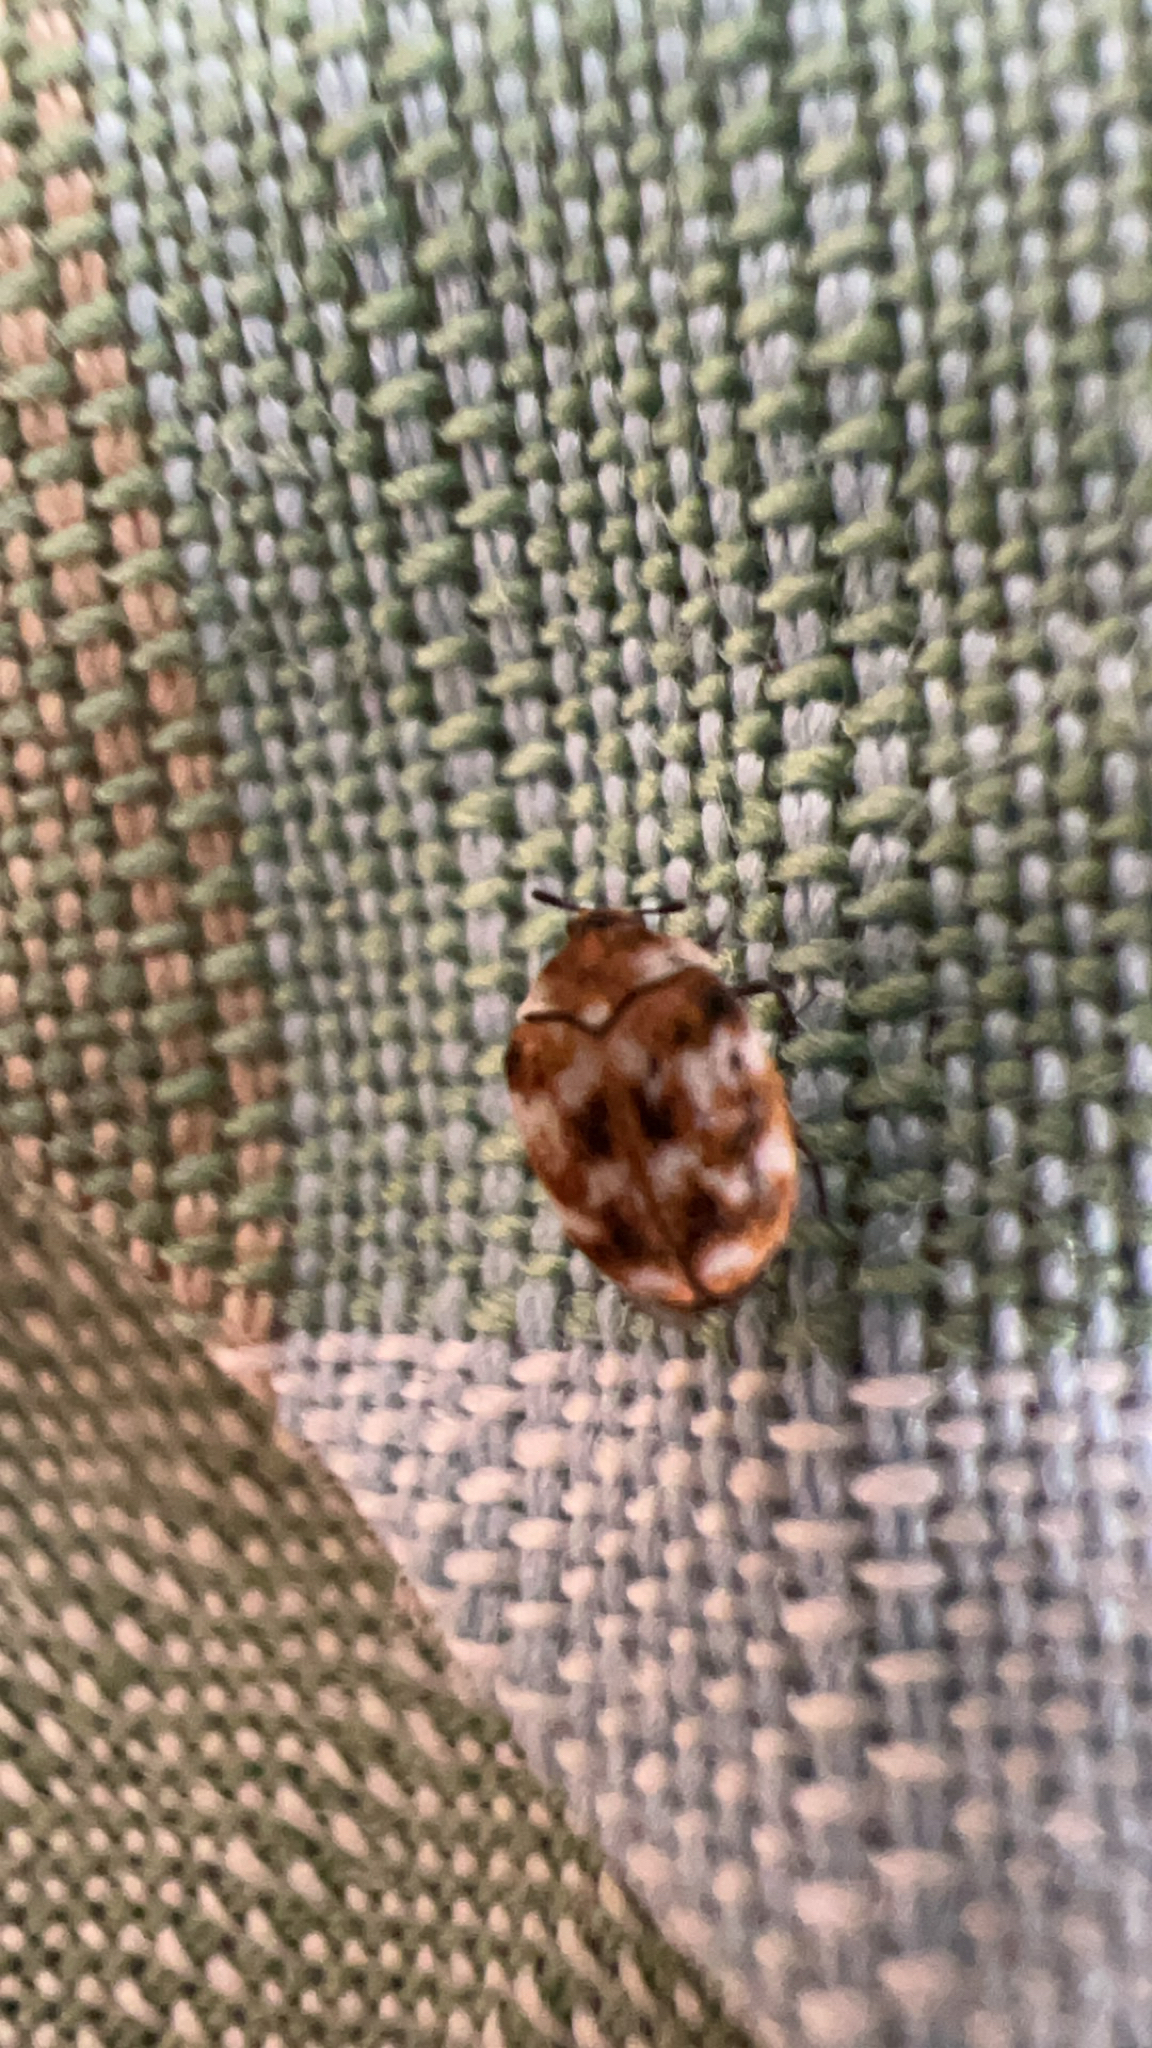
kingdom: Animalia
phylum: Arthropoda
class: Insecta
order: Coleoptera
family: Dermestidae
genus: Anthrenus
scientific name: Anthrenus verbasci
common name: Varied carpet beetle
